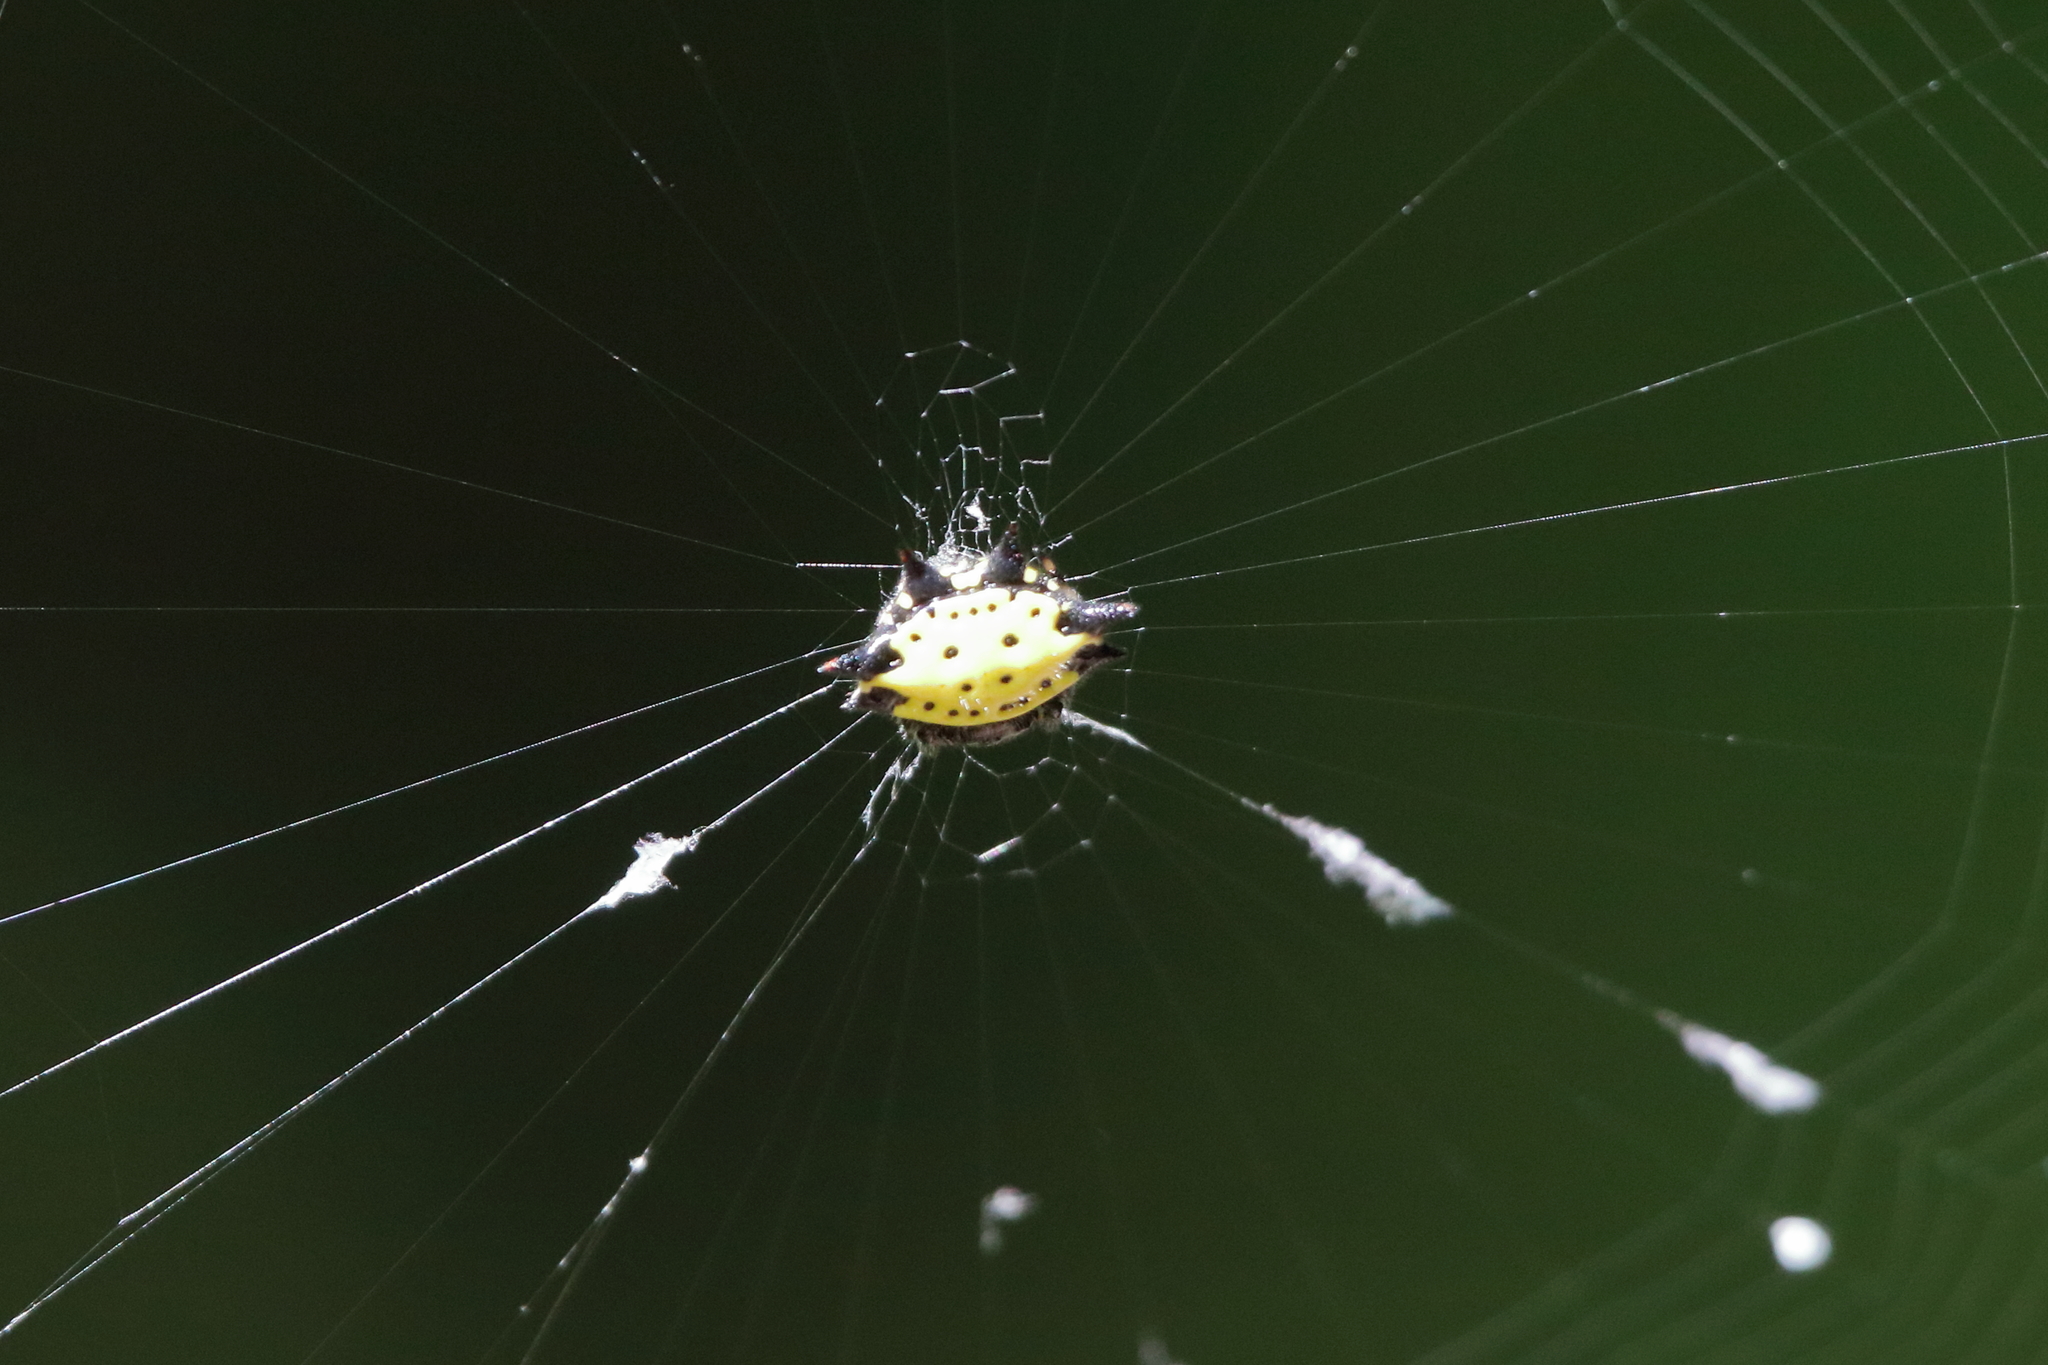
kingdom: Animalia
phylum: Arthropoda
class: Arachnida
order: Araneae
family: Araneidae
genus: Gasteracantha
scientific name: Gasteracantha cancriformis
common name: Orb weavers
